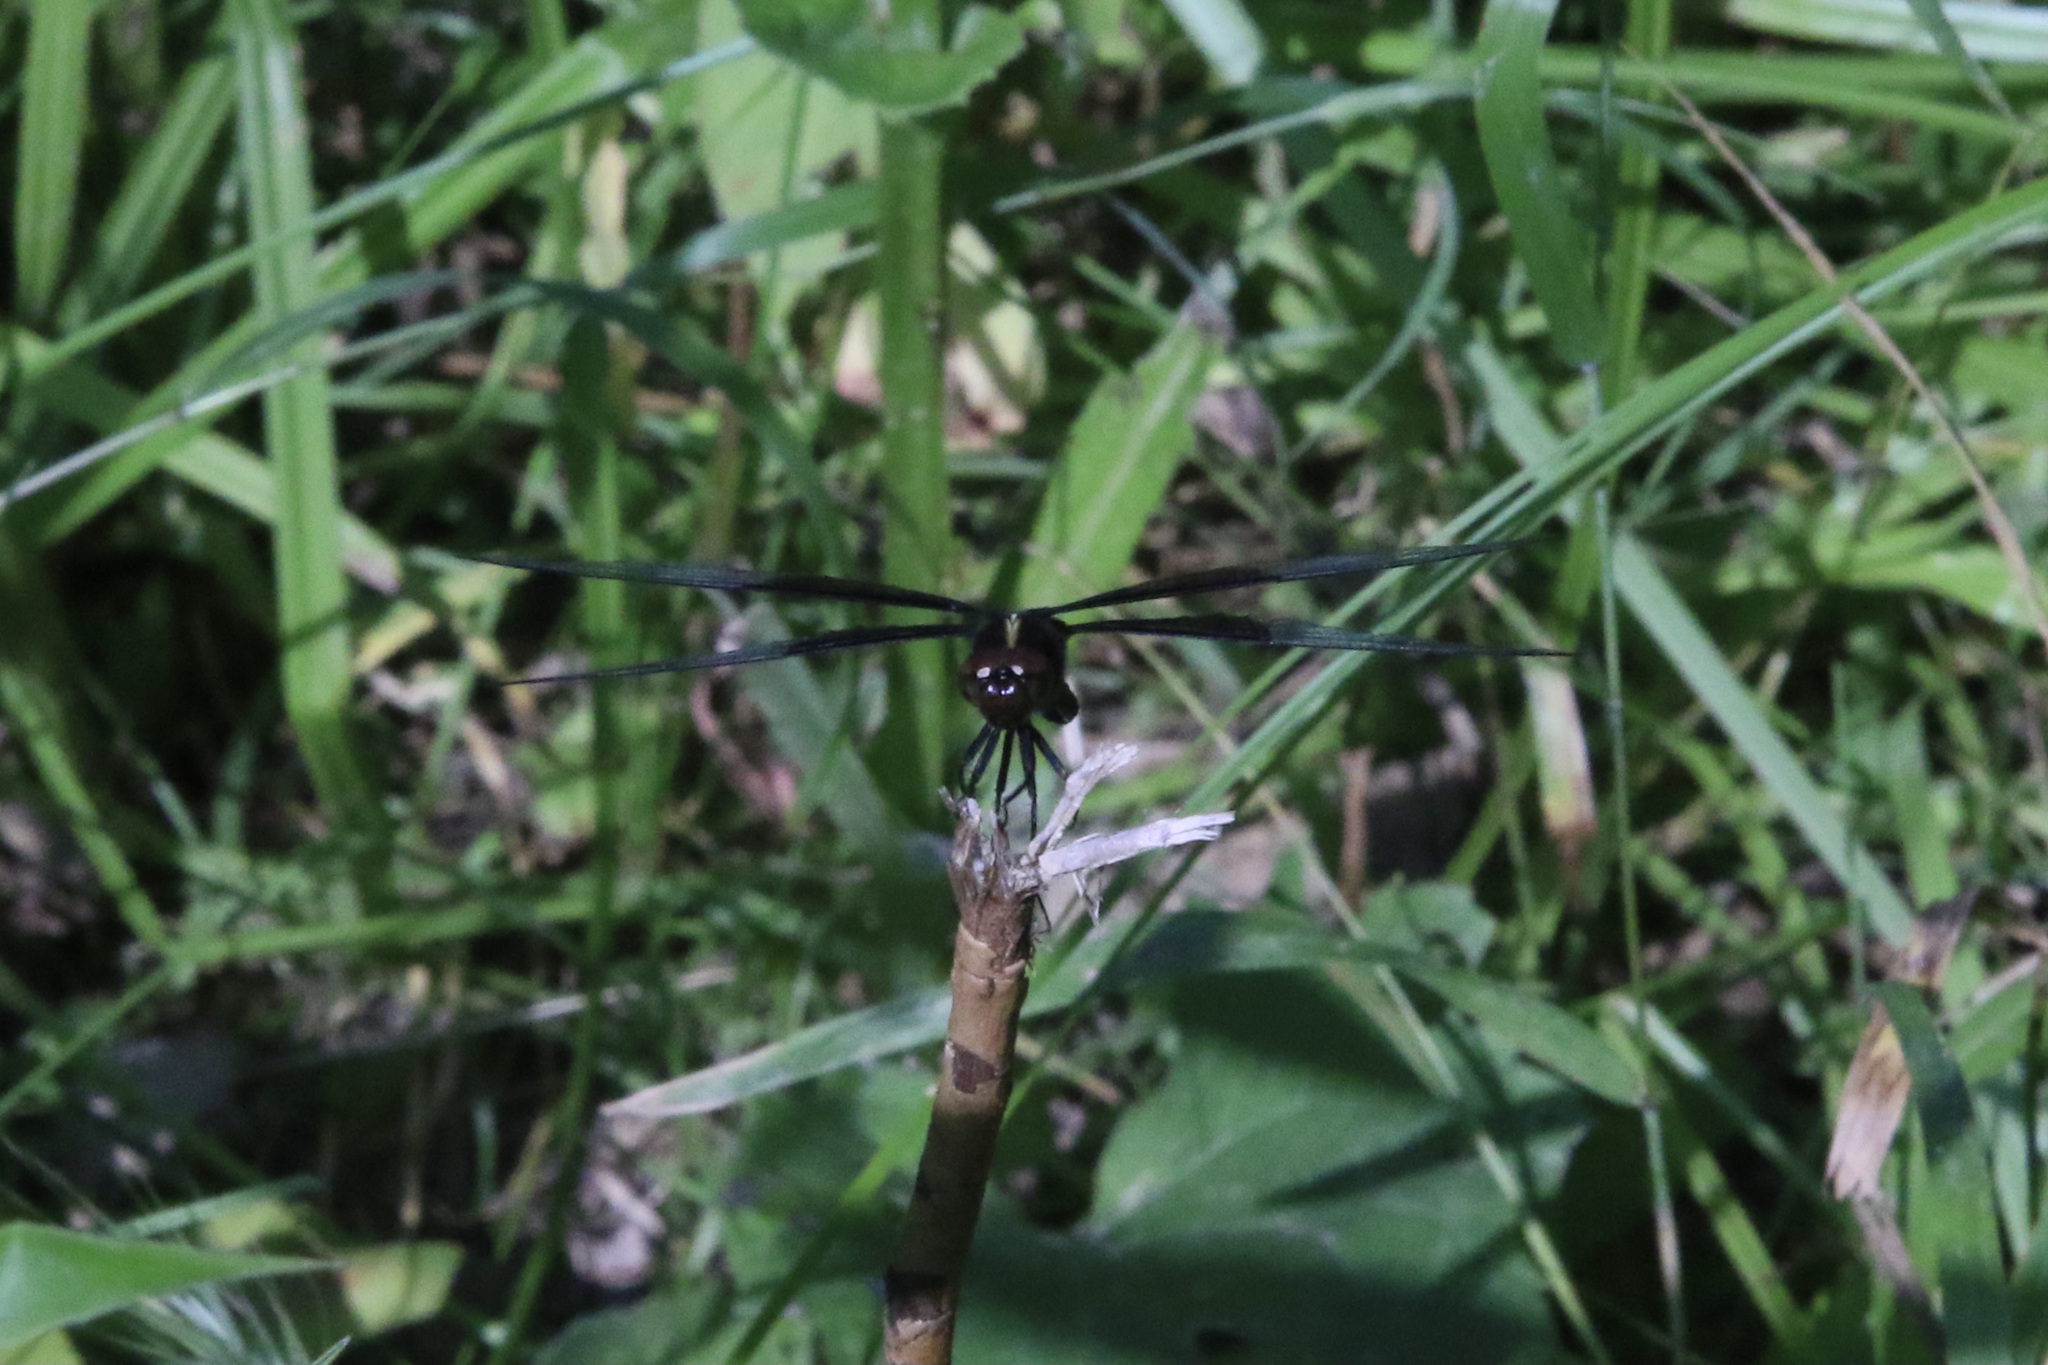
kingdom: Animalia
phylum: Arthropoda
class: Insecta
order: Odonata
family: Libellulidae
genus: Libellula
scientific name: Libellula luctuosa
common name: Widow skimmer
